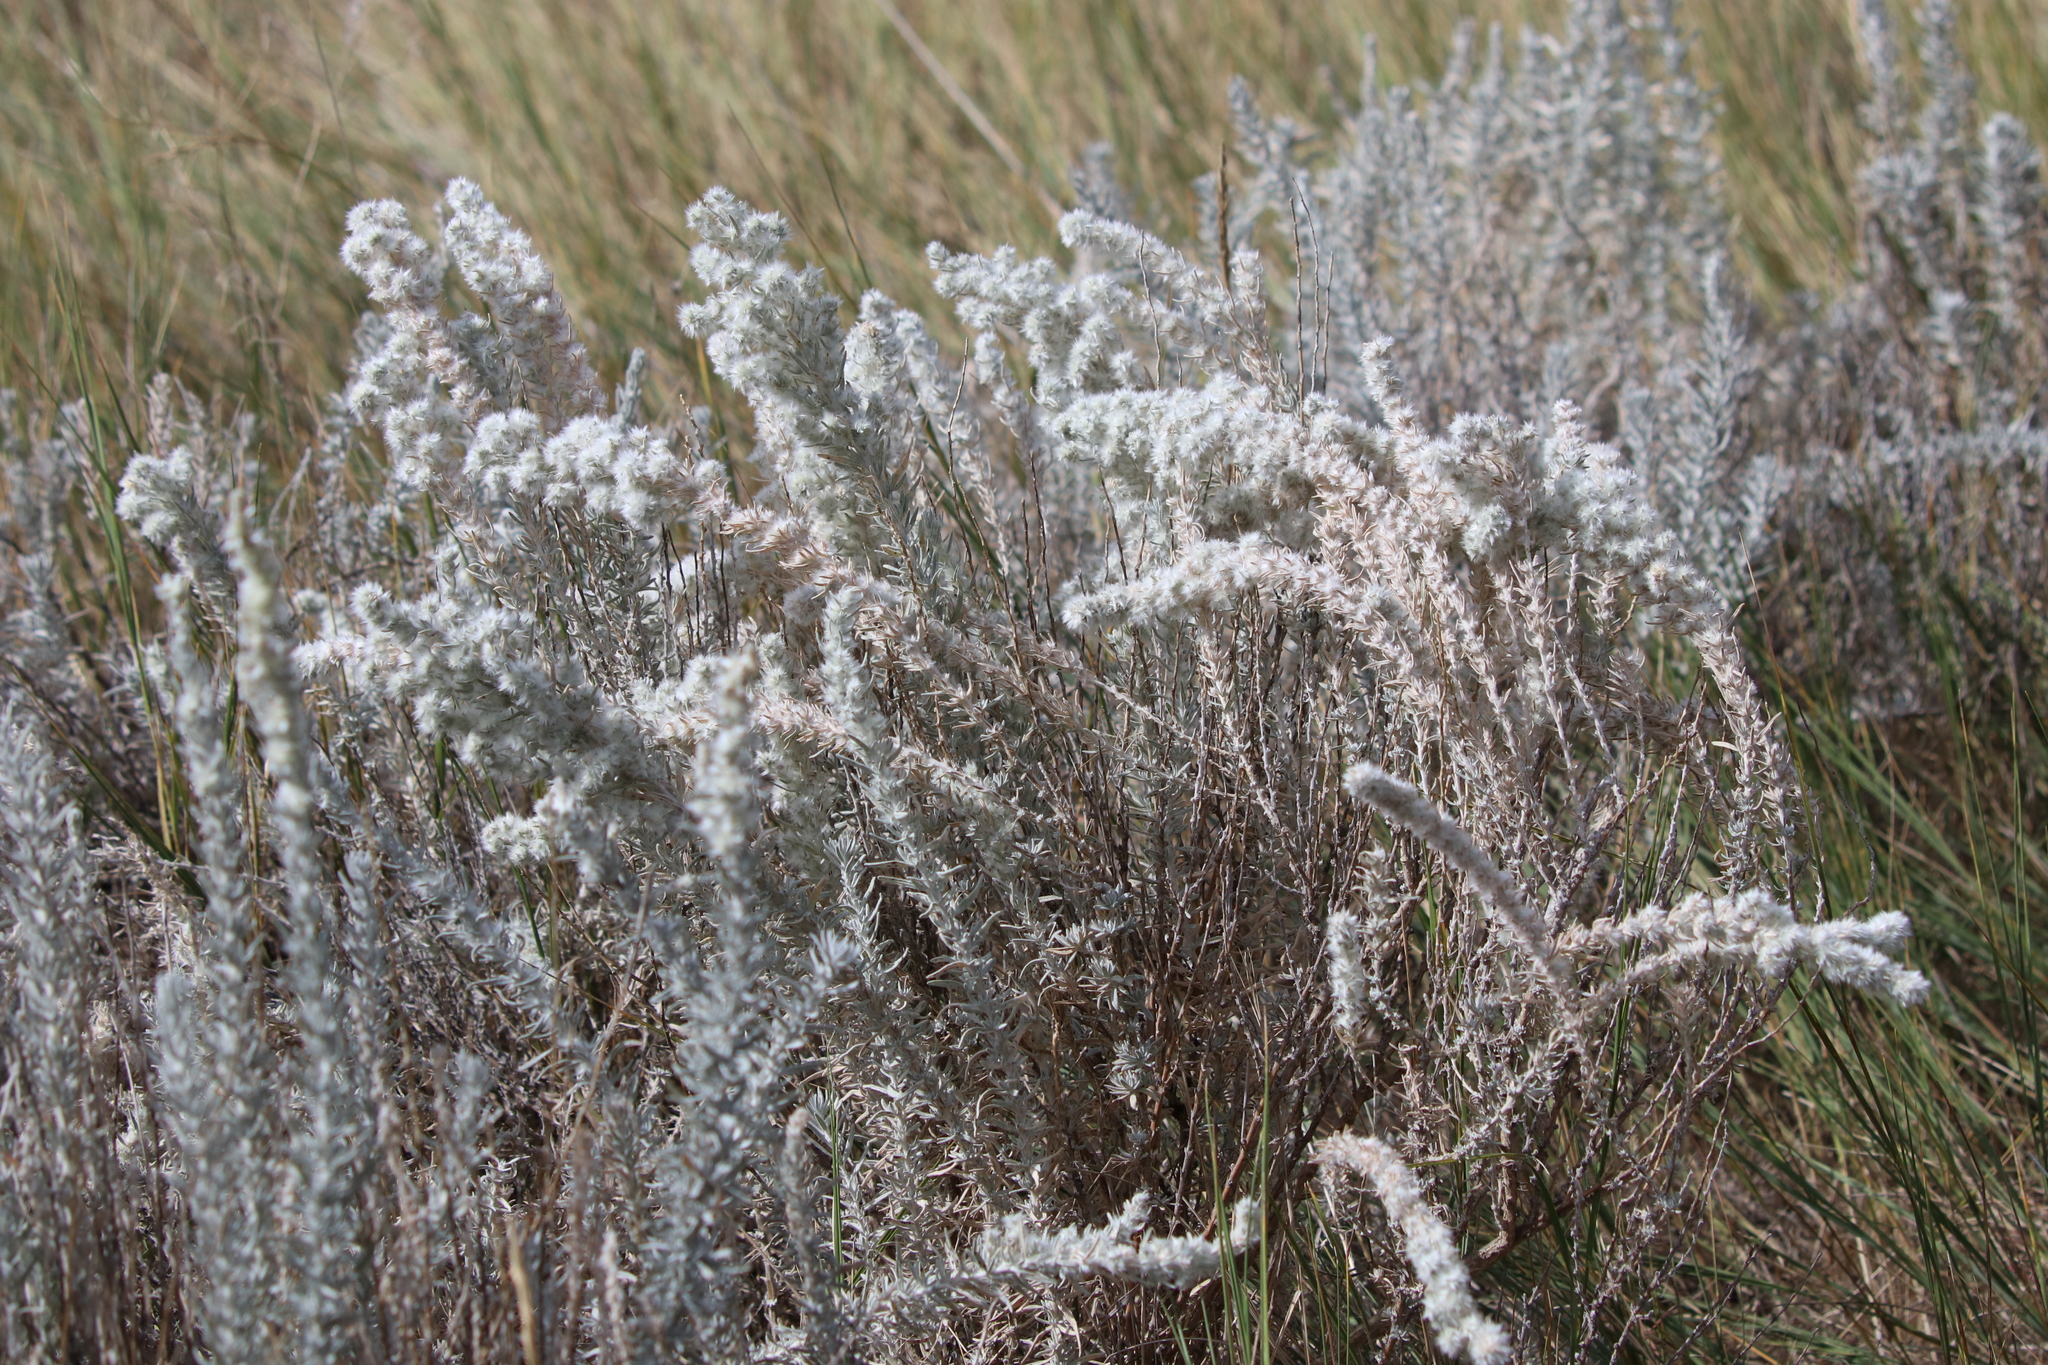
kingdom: Plantae
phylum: Tracheophyta
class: Magnoliopsida
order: Caryophyllales
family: Amaranthaceae
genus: Krascheninnikovia
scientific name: Krascheninnikovia lanata
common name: Winterfat
